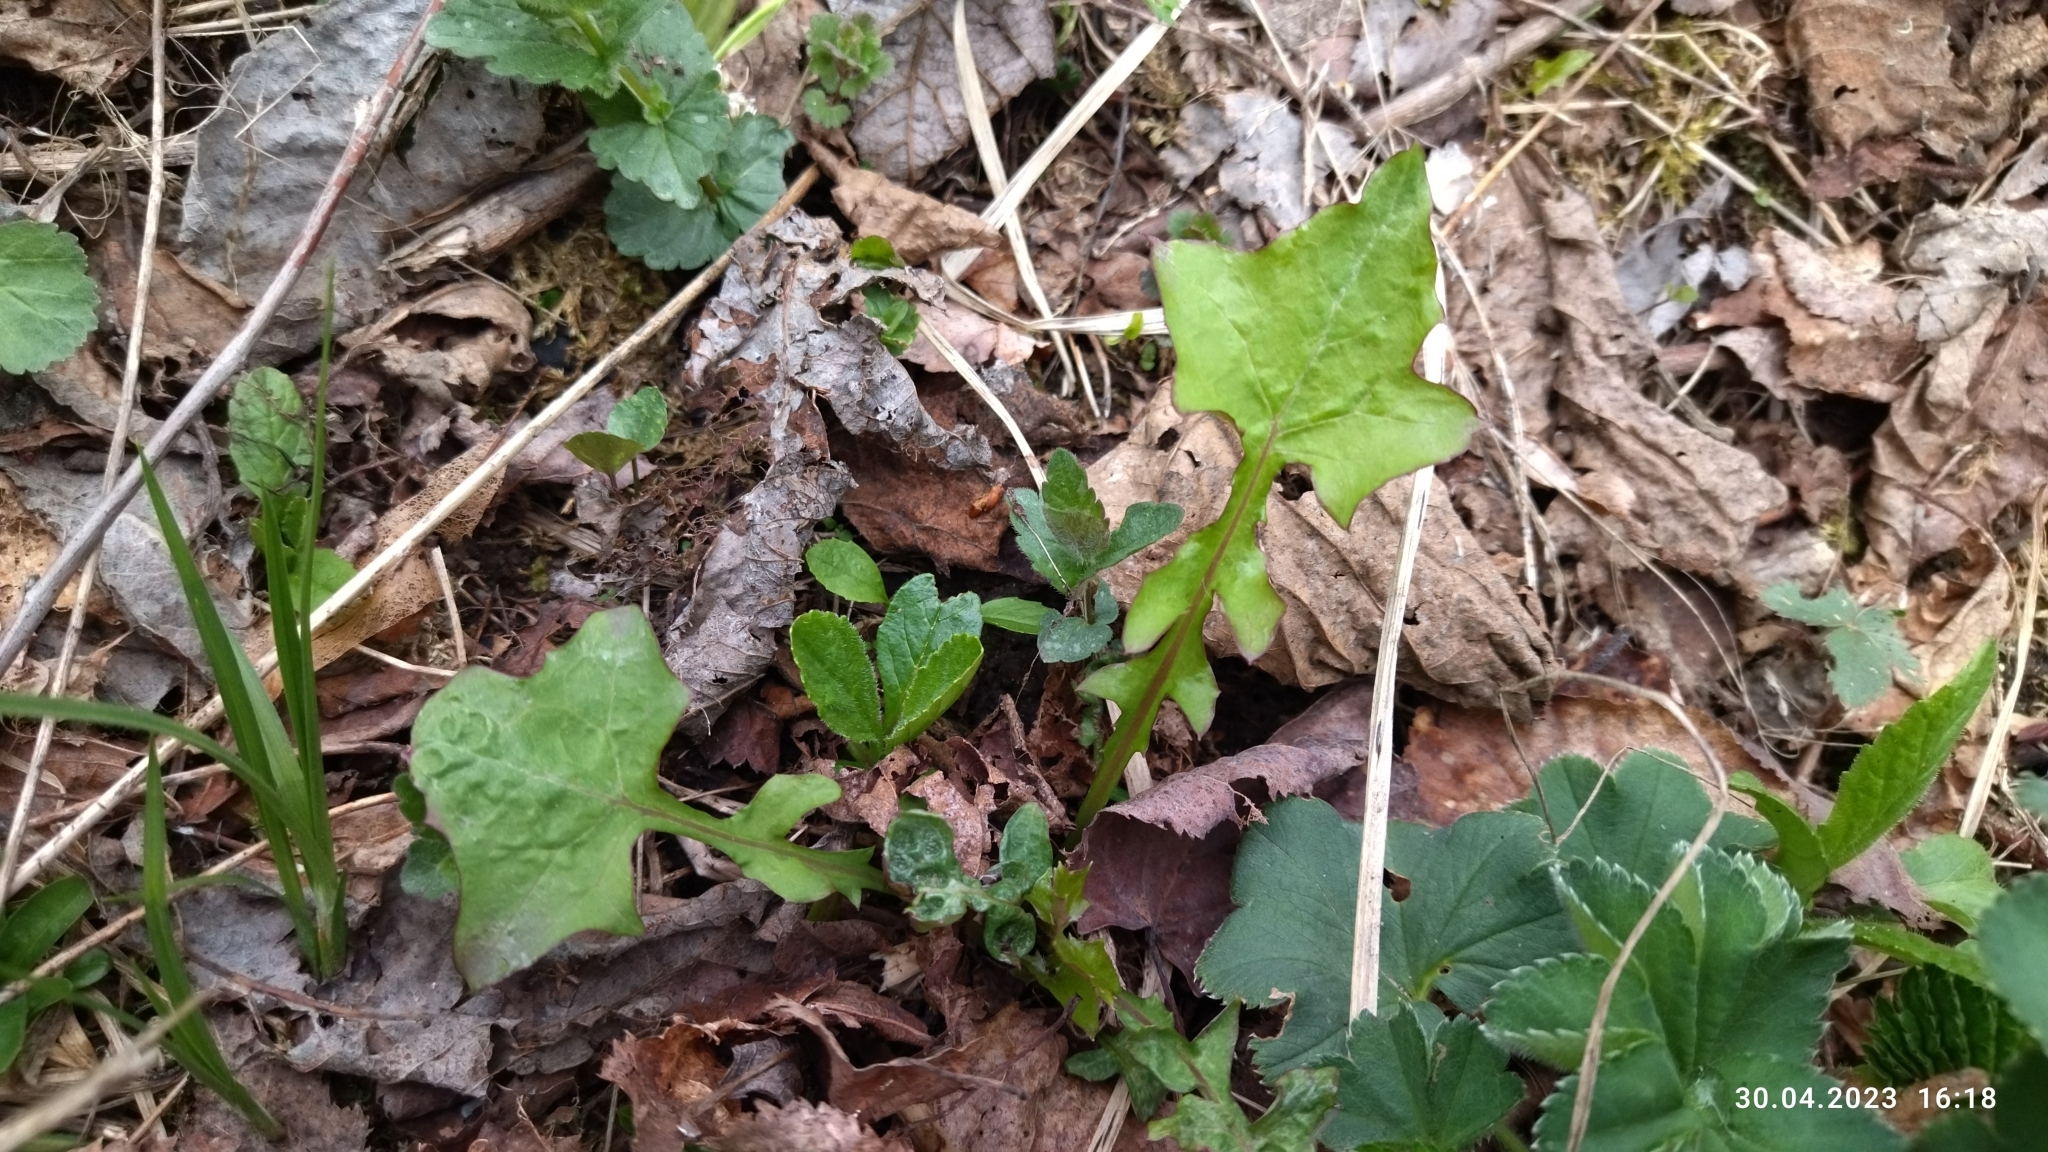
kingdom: Plantae
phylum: Tracheophyta
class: Magnoliopsida
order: Asterales
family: Asteraceae
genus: Mycelis
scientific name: Mycelis muralis
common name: Wall lettuce
